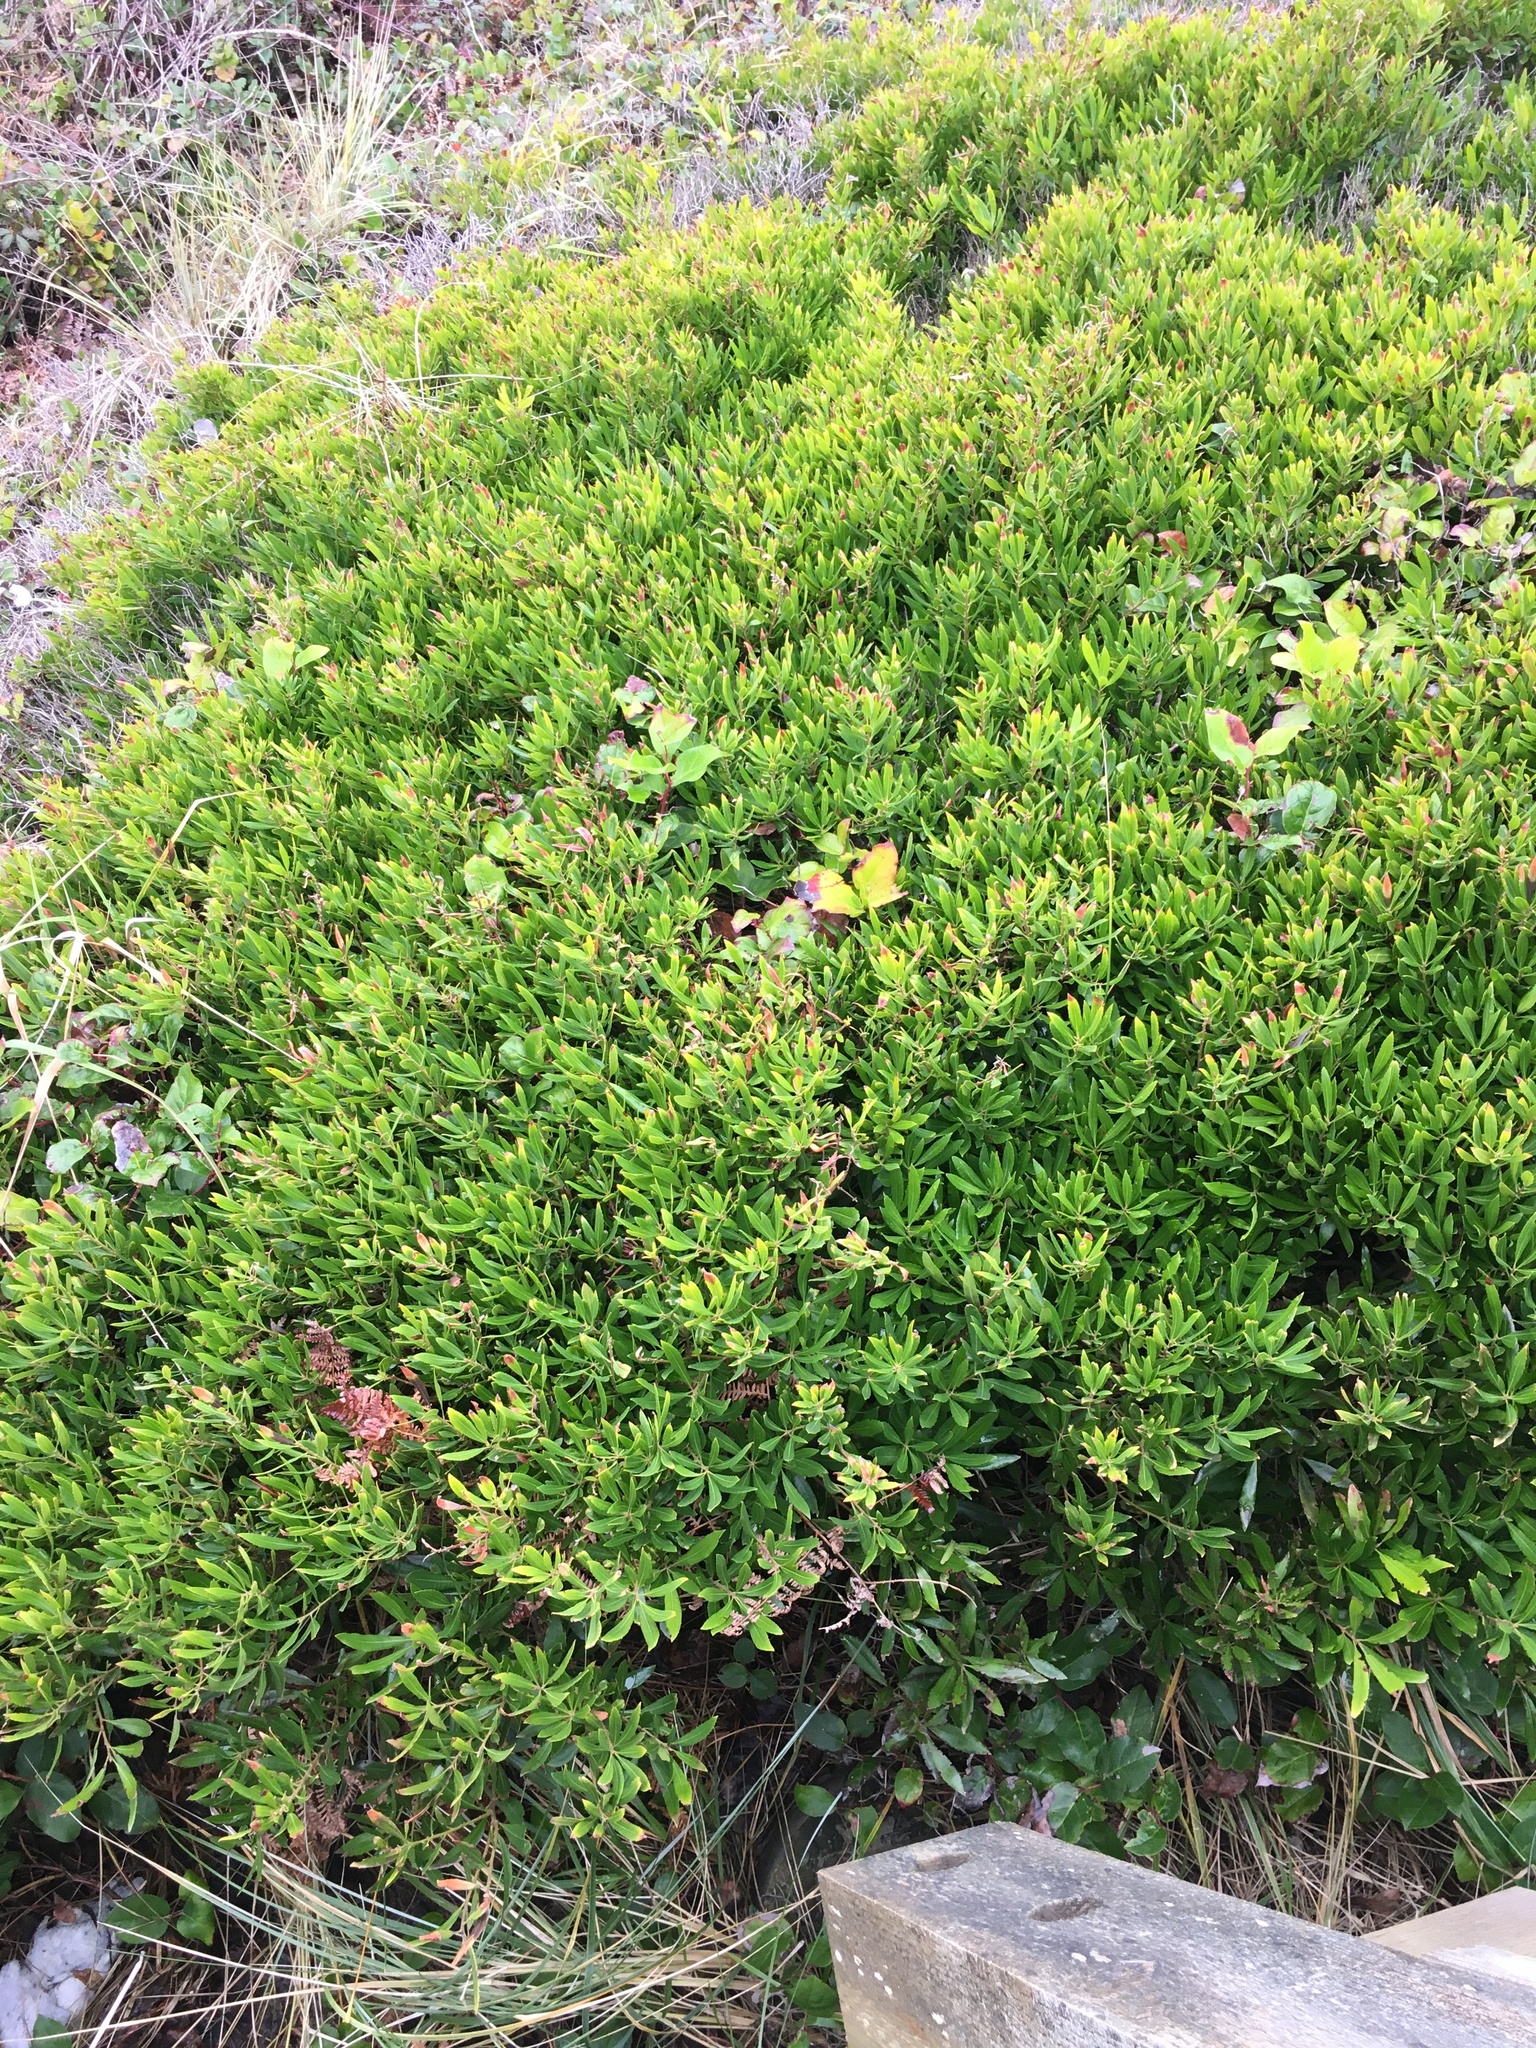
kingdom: Plantae
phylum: Tracheophyta
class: Magnoliopsida
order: Fagales
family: Myricaceae
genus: Morella
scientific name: Morella californica
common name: California wax-myrtle
